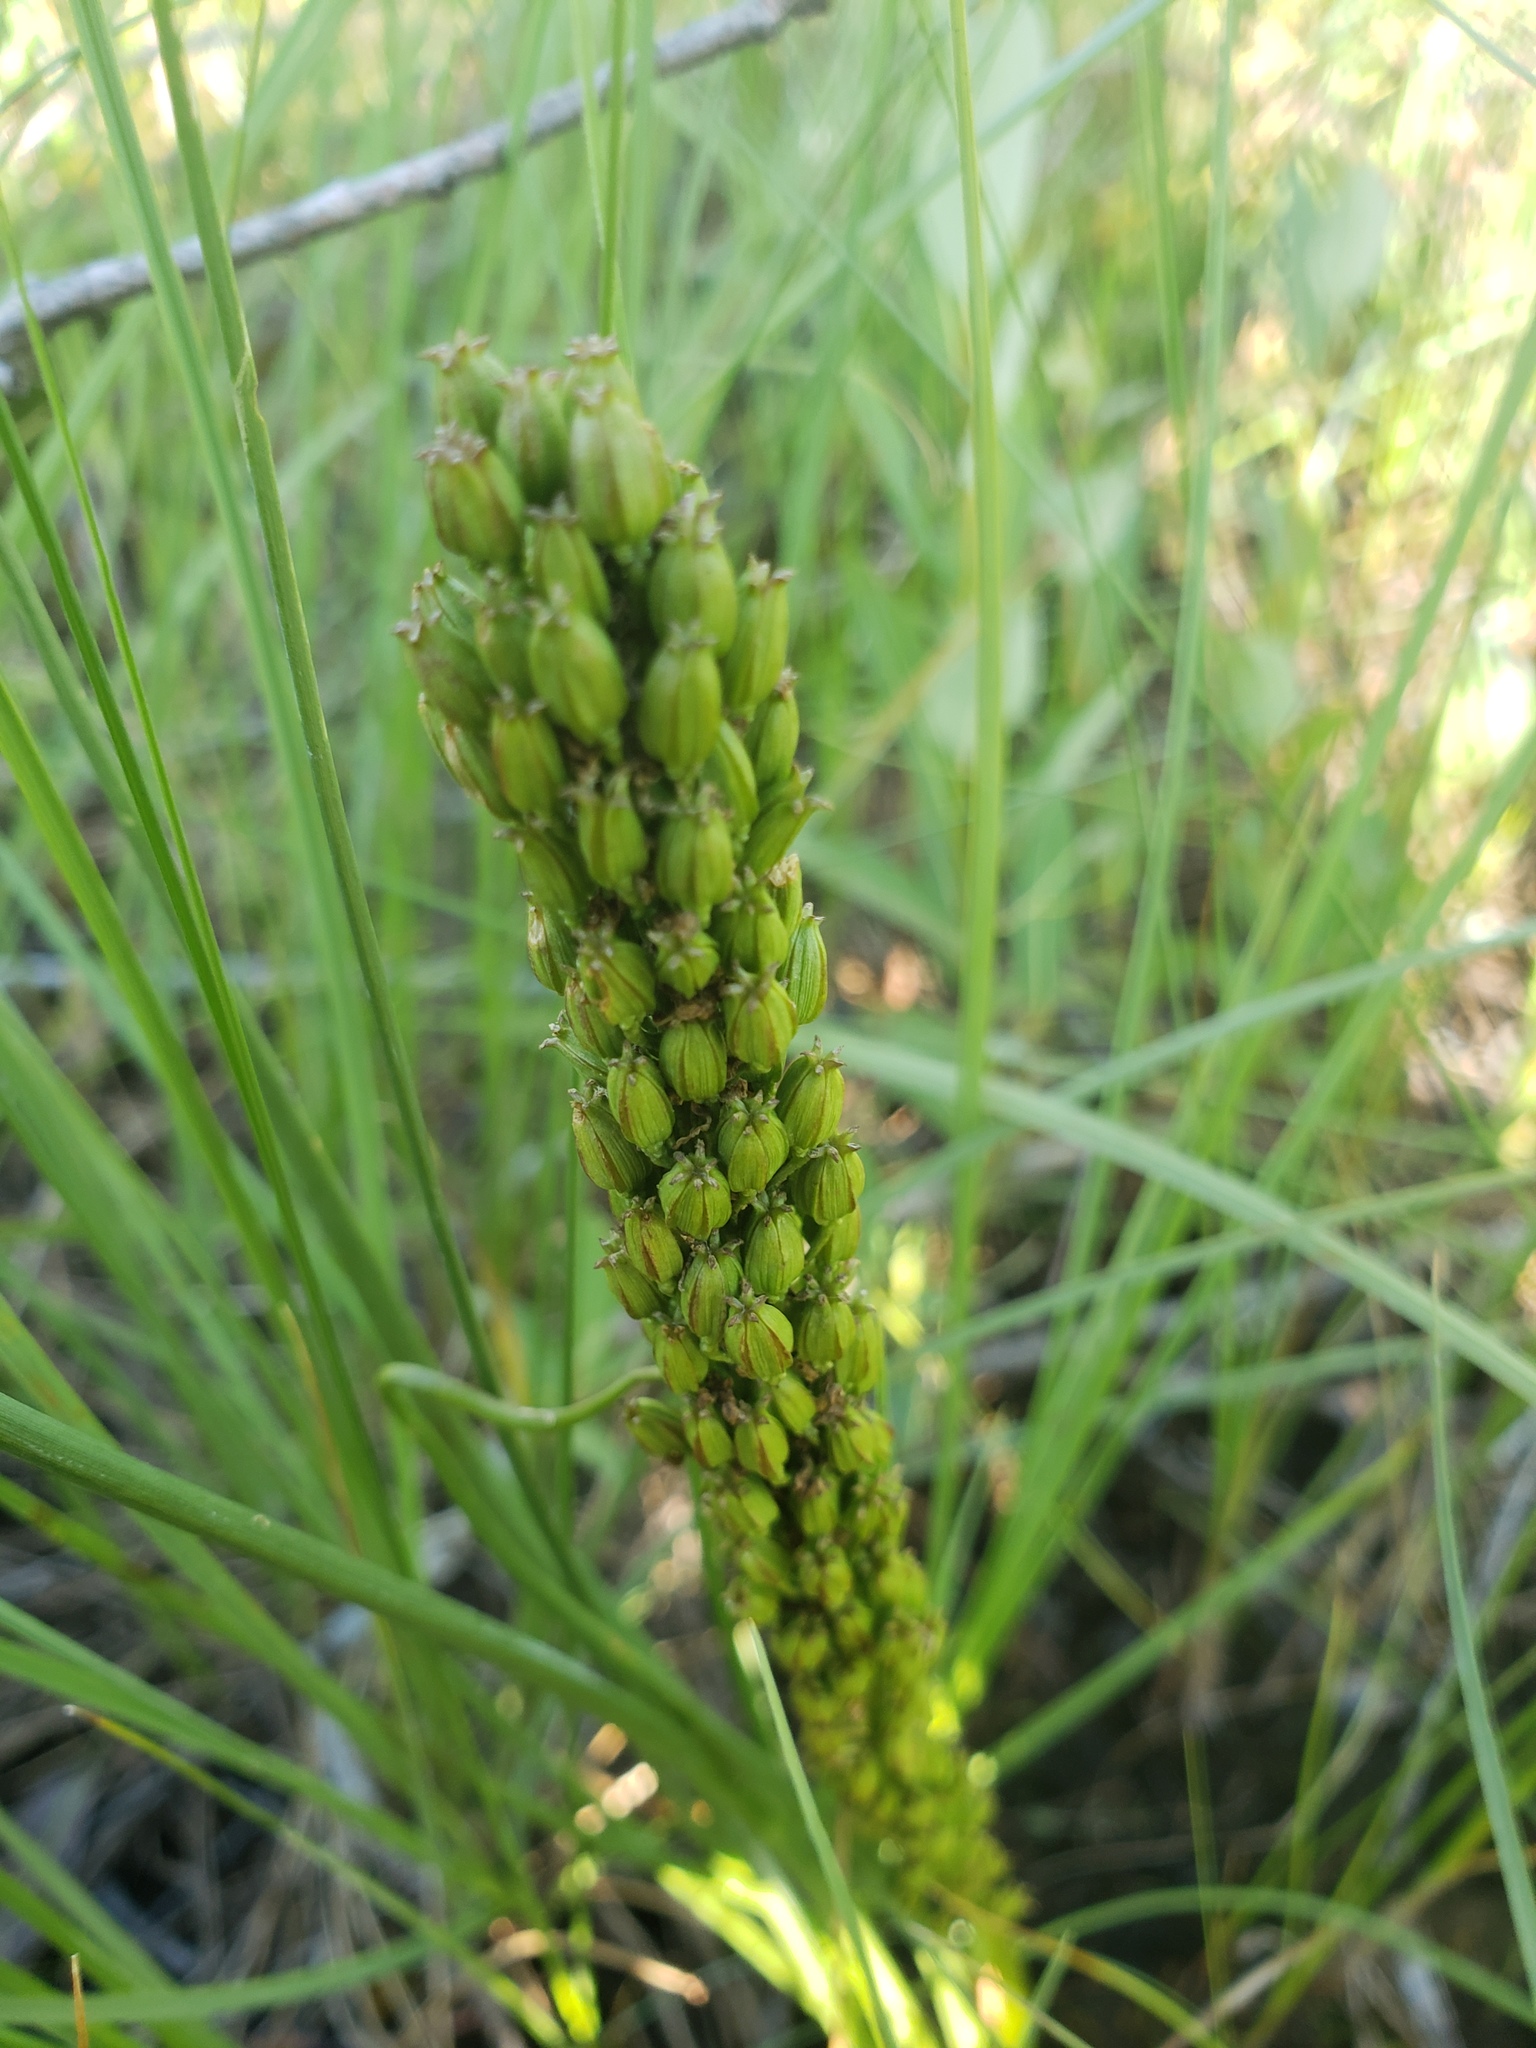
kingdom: Plantae
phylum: Tracheophyta
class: Liliopsida
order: Alismatales
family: Juncaginaceae
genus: Triglochin
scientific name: Triglochin maritima
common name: Sea arrowgrass
